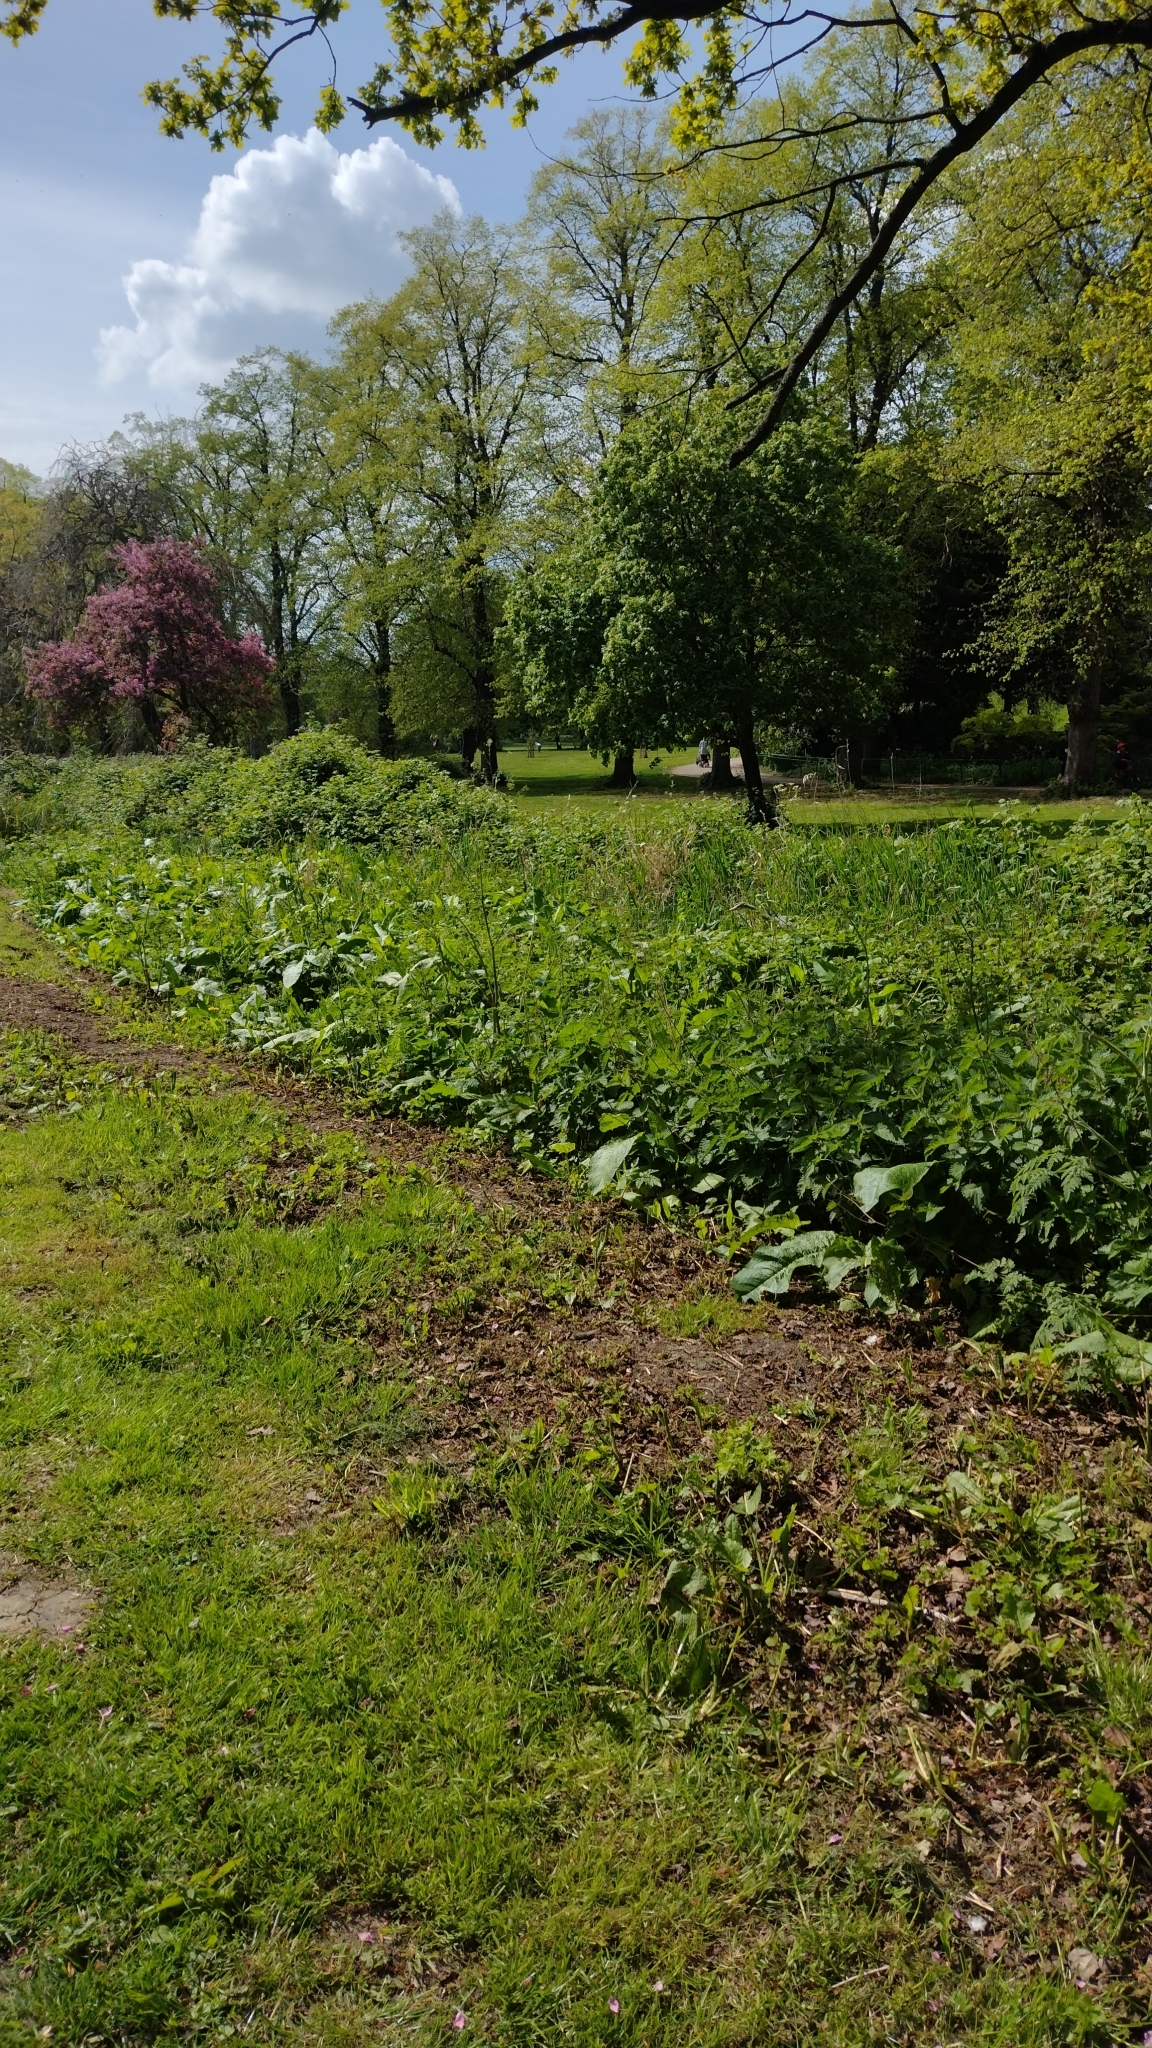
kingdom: Animalia
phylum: Chordata
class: Aves
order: Pelecaniformes
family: Ardeidae
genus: Ardea
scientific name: Ardea cinerea
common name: Grey heron
